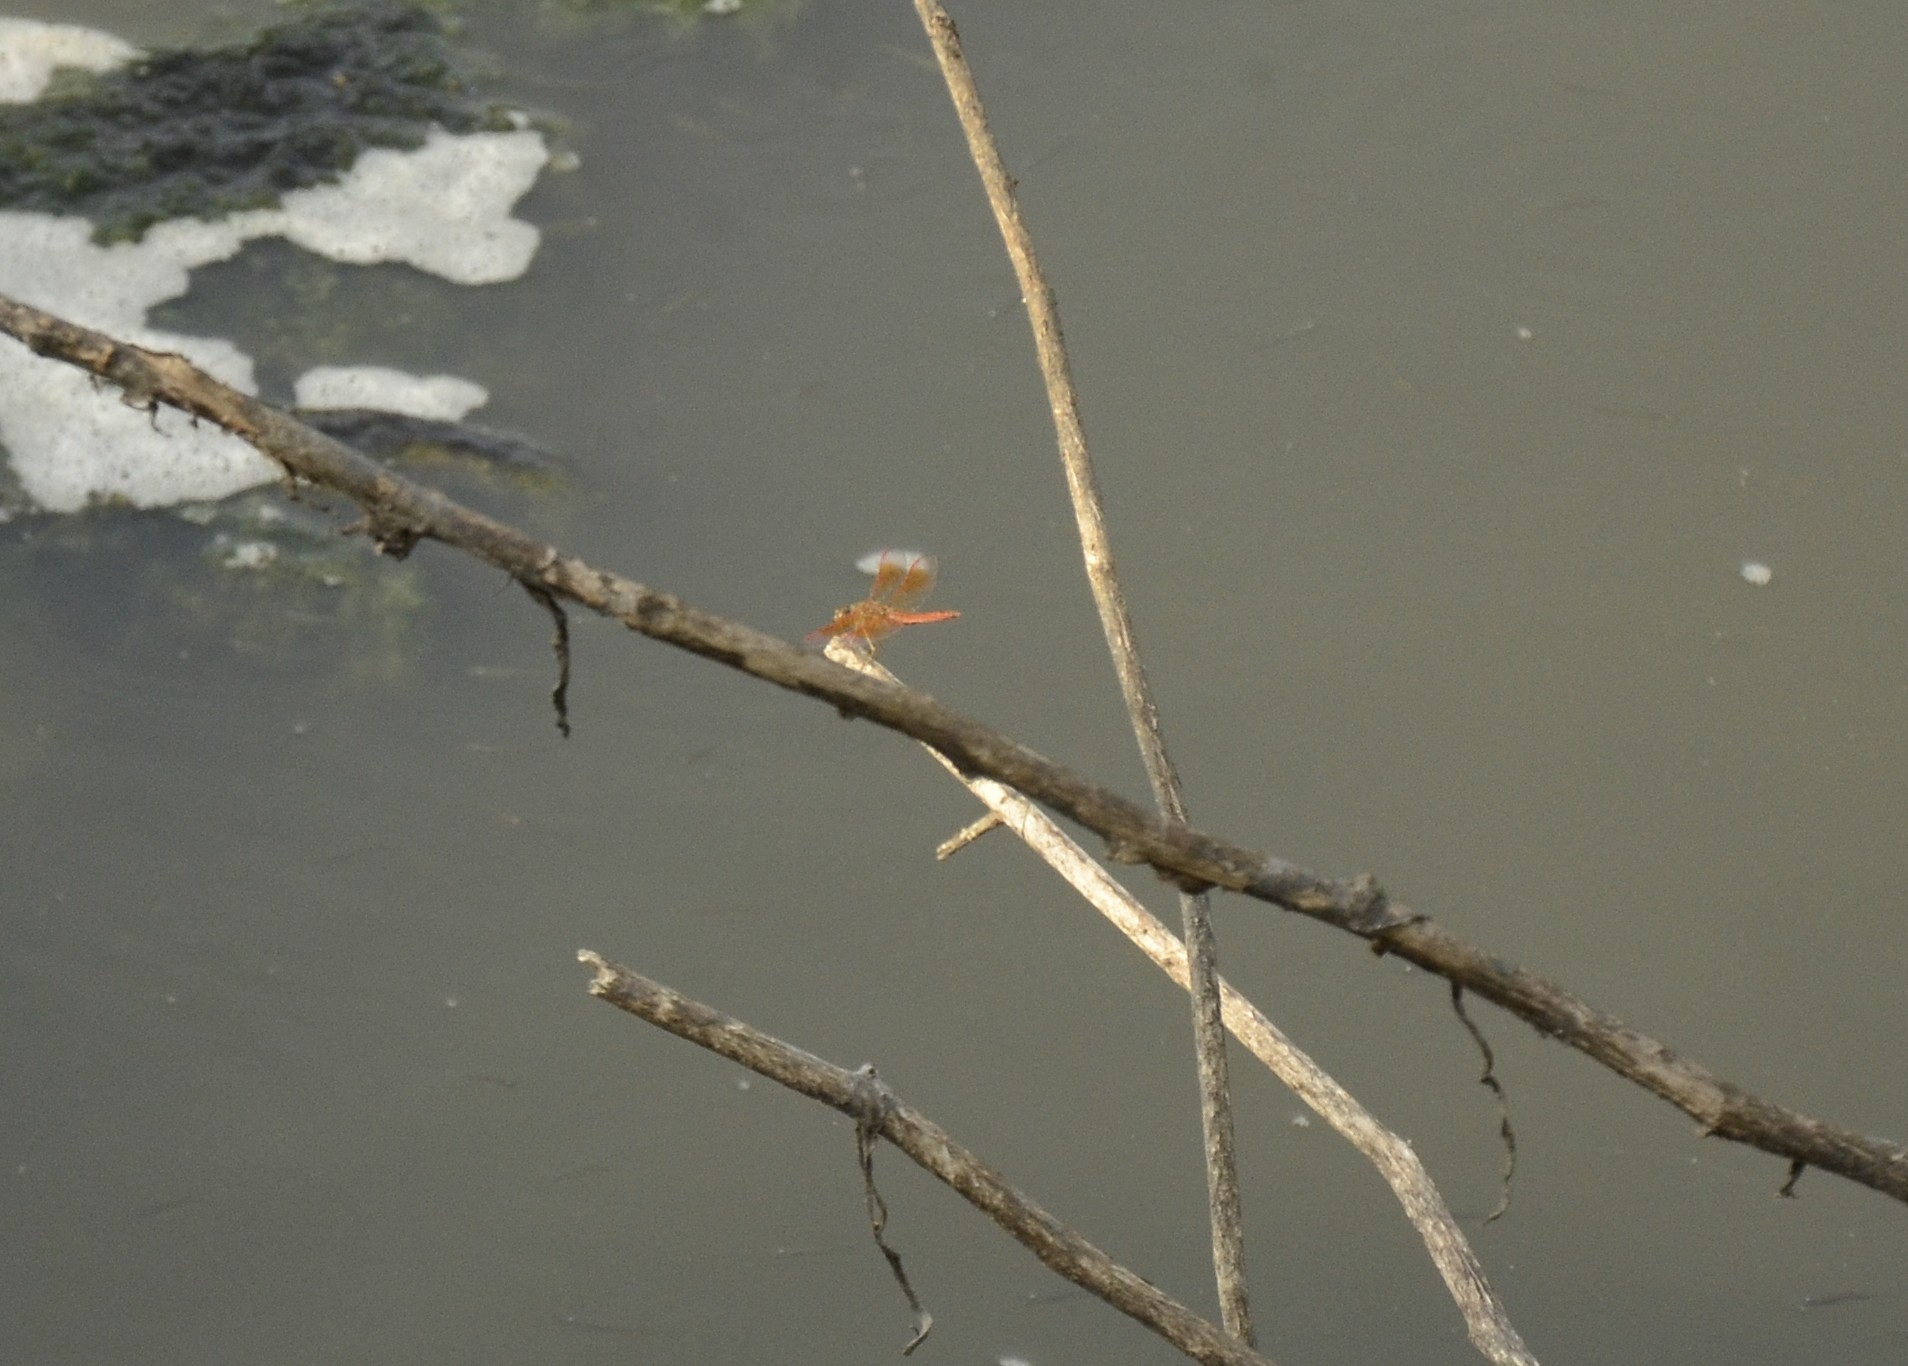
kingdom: Animalia
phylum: Arthropoda
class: Insecta
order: Odonata
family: Libellulidae
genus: Brachythemis
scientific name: Brachythemis contaminata
